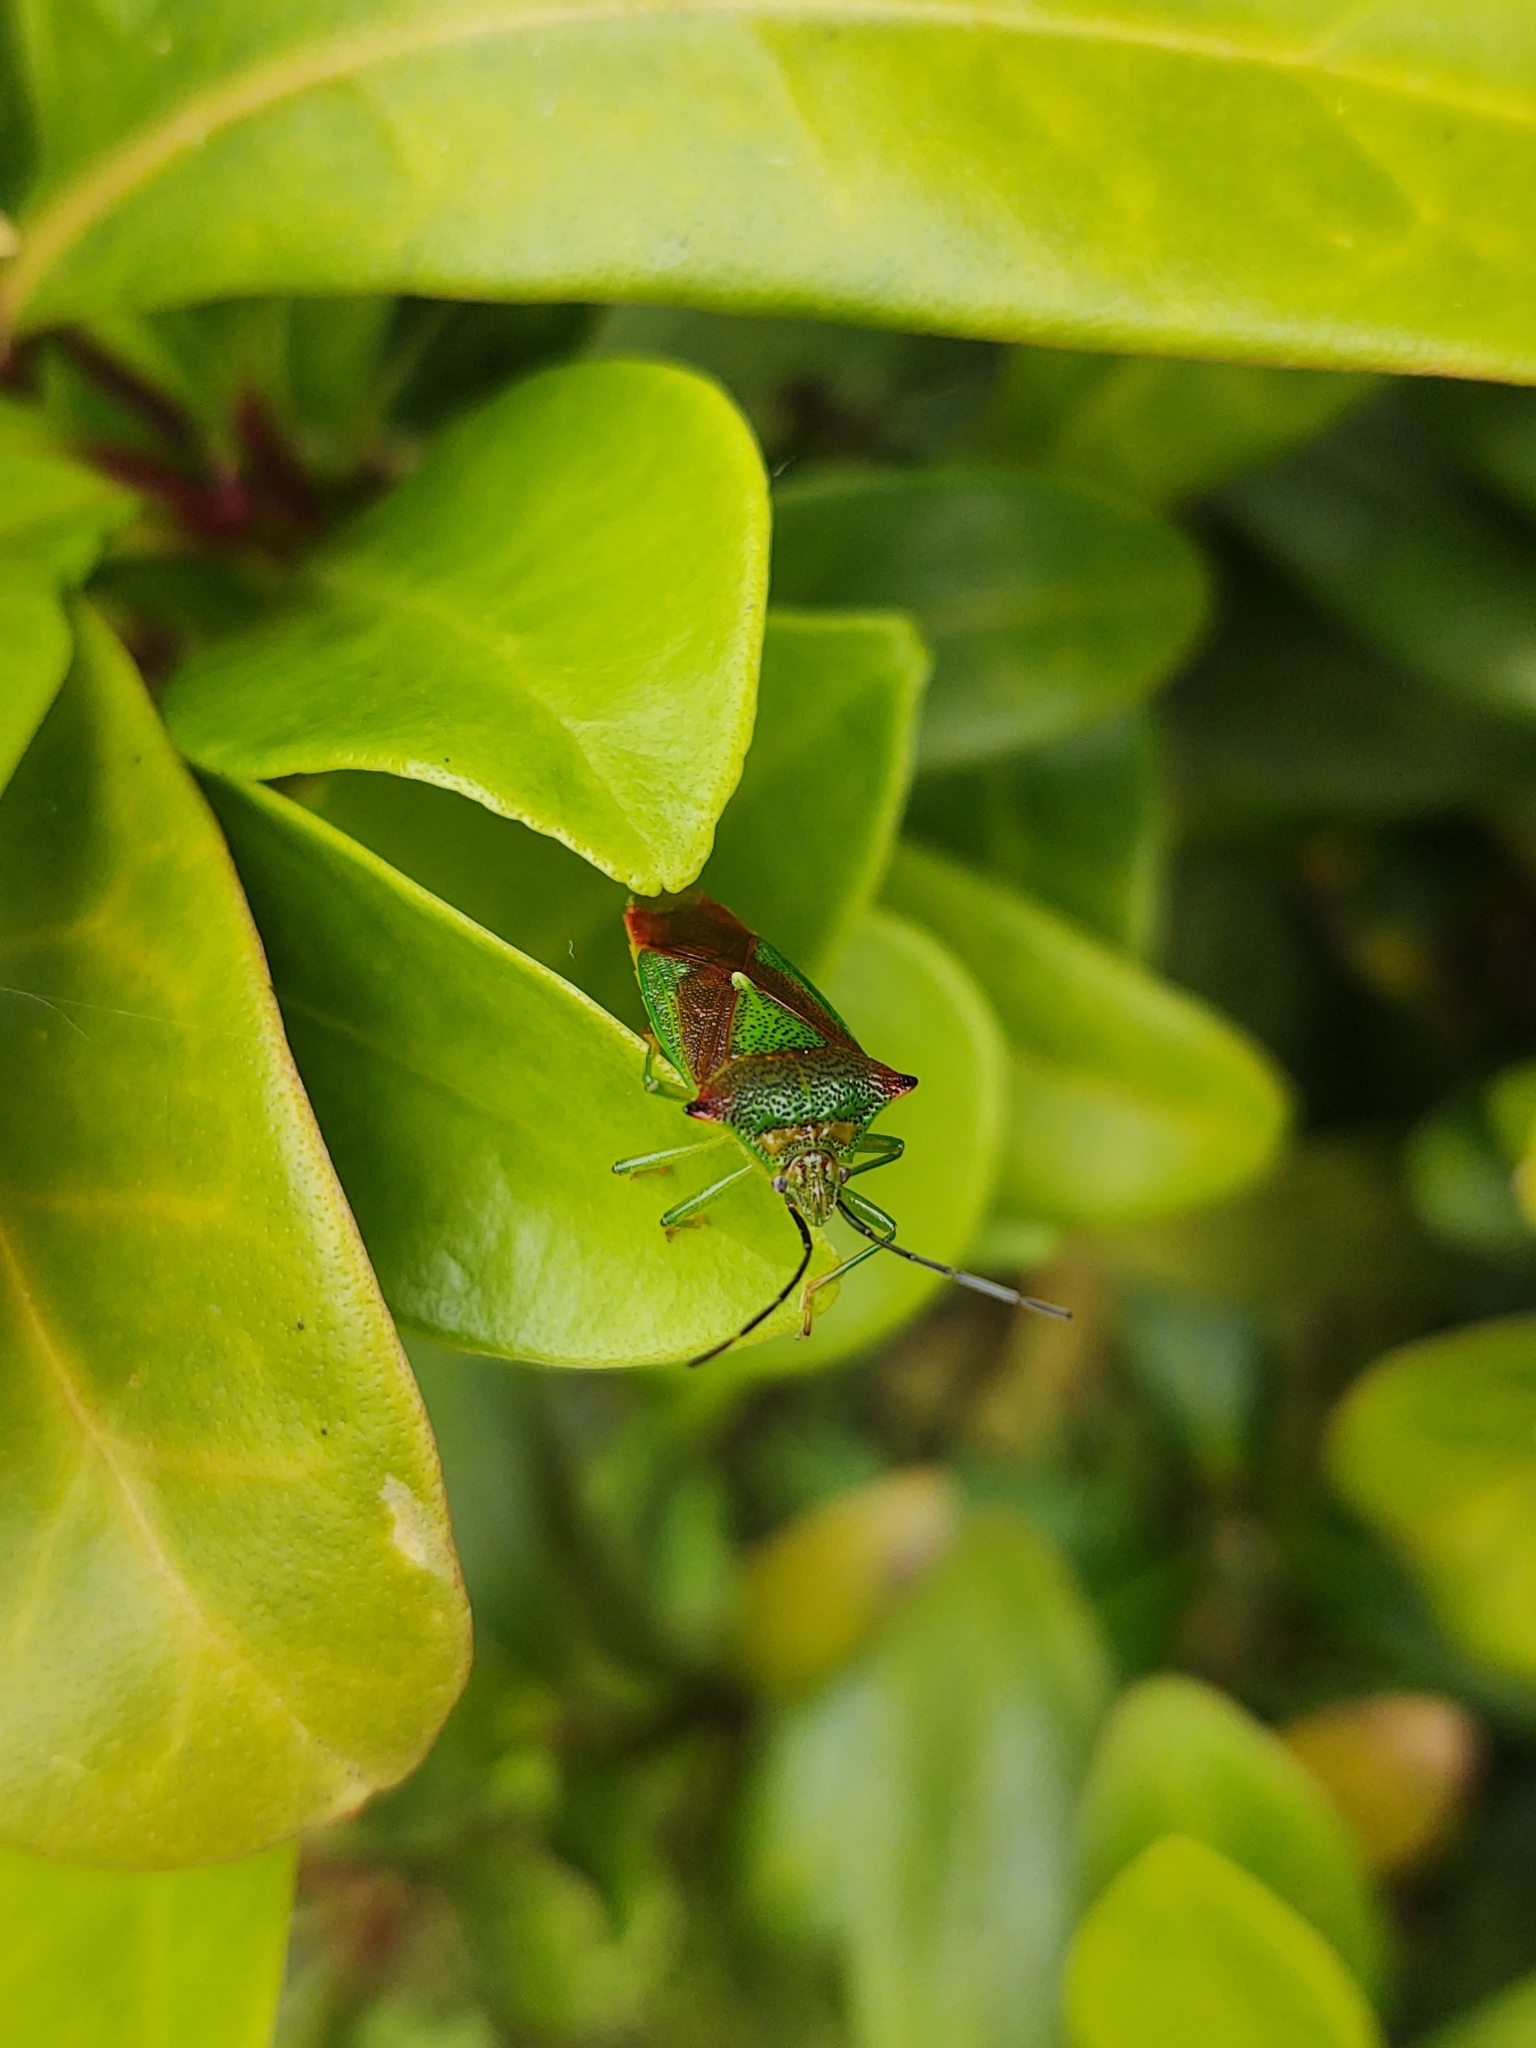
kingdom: Animalia
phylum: Arthropoda
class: Insecta
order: Hemiptera
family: Acanthosomatidae
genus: Acanthosoma
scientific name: Acanthosoma haemorrhoidale
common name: Hawthorn shieldbug
